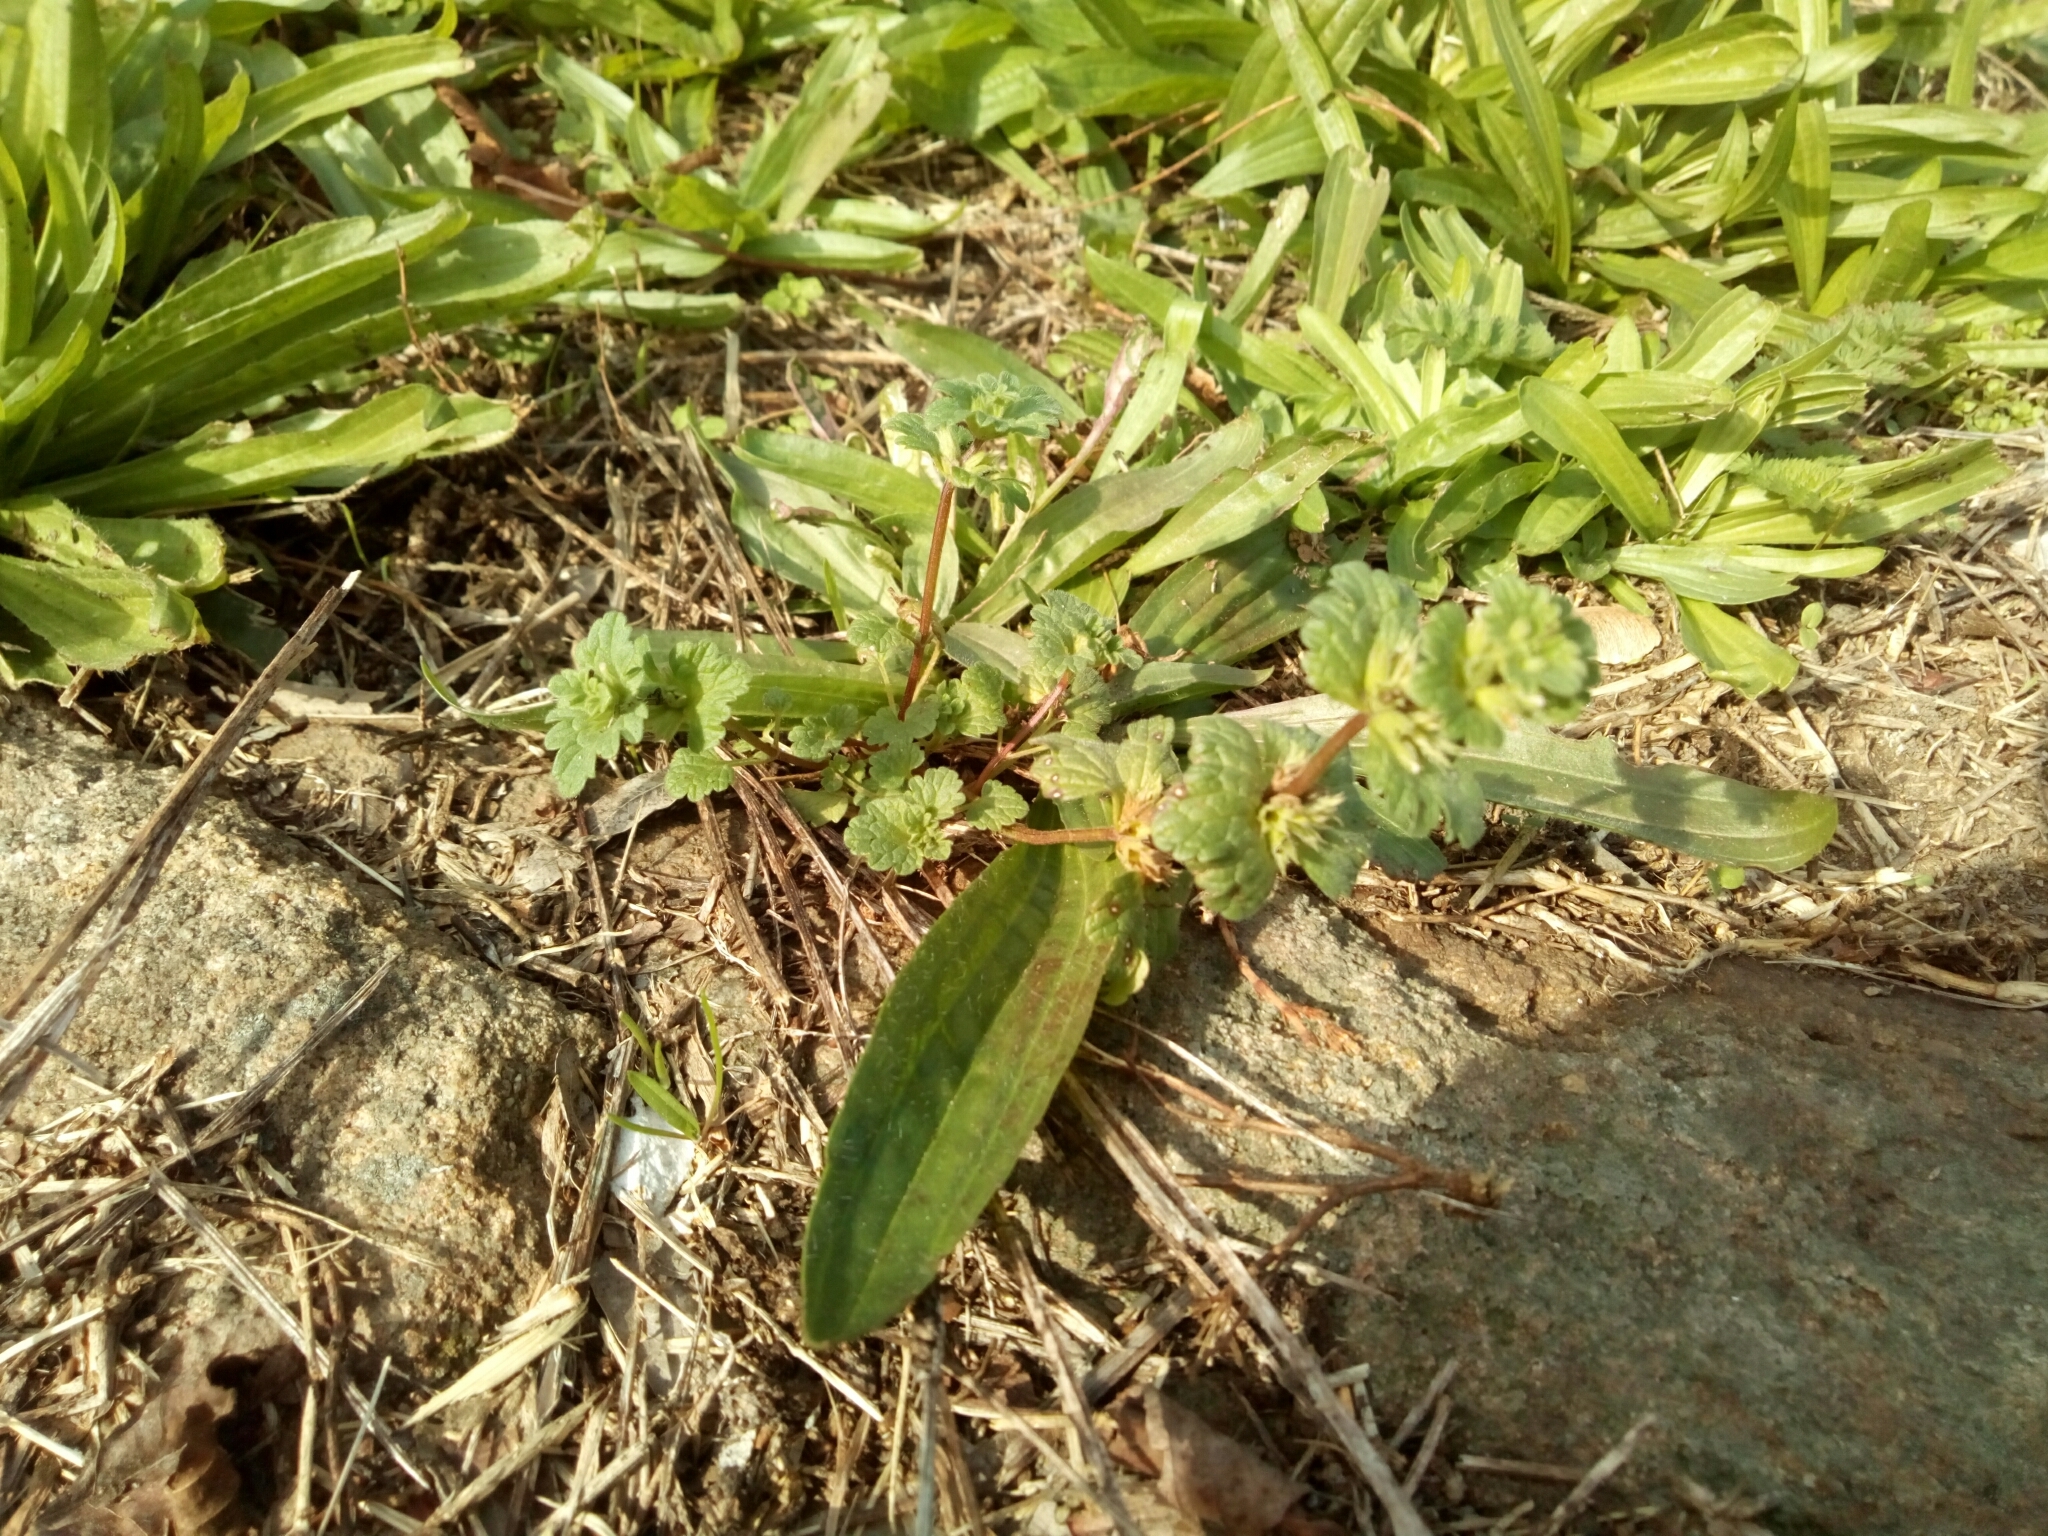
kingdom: Plantae
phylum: Tracheophyta
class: Magnoliopsida
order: Lamiales
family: Lamiaceae
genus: Lamium
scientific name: Lamium amplexicaule
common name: Henbit dead-nettle
